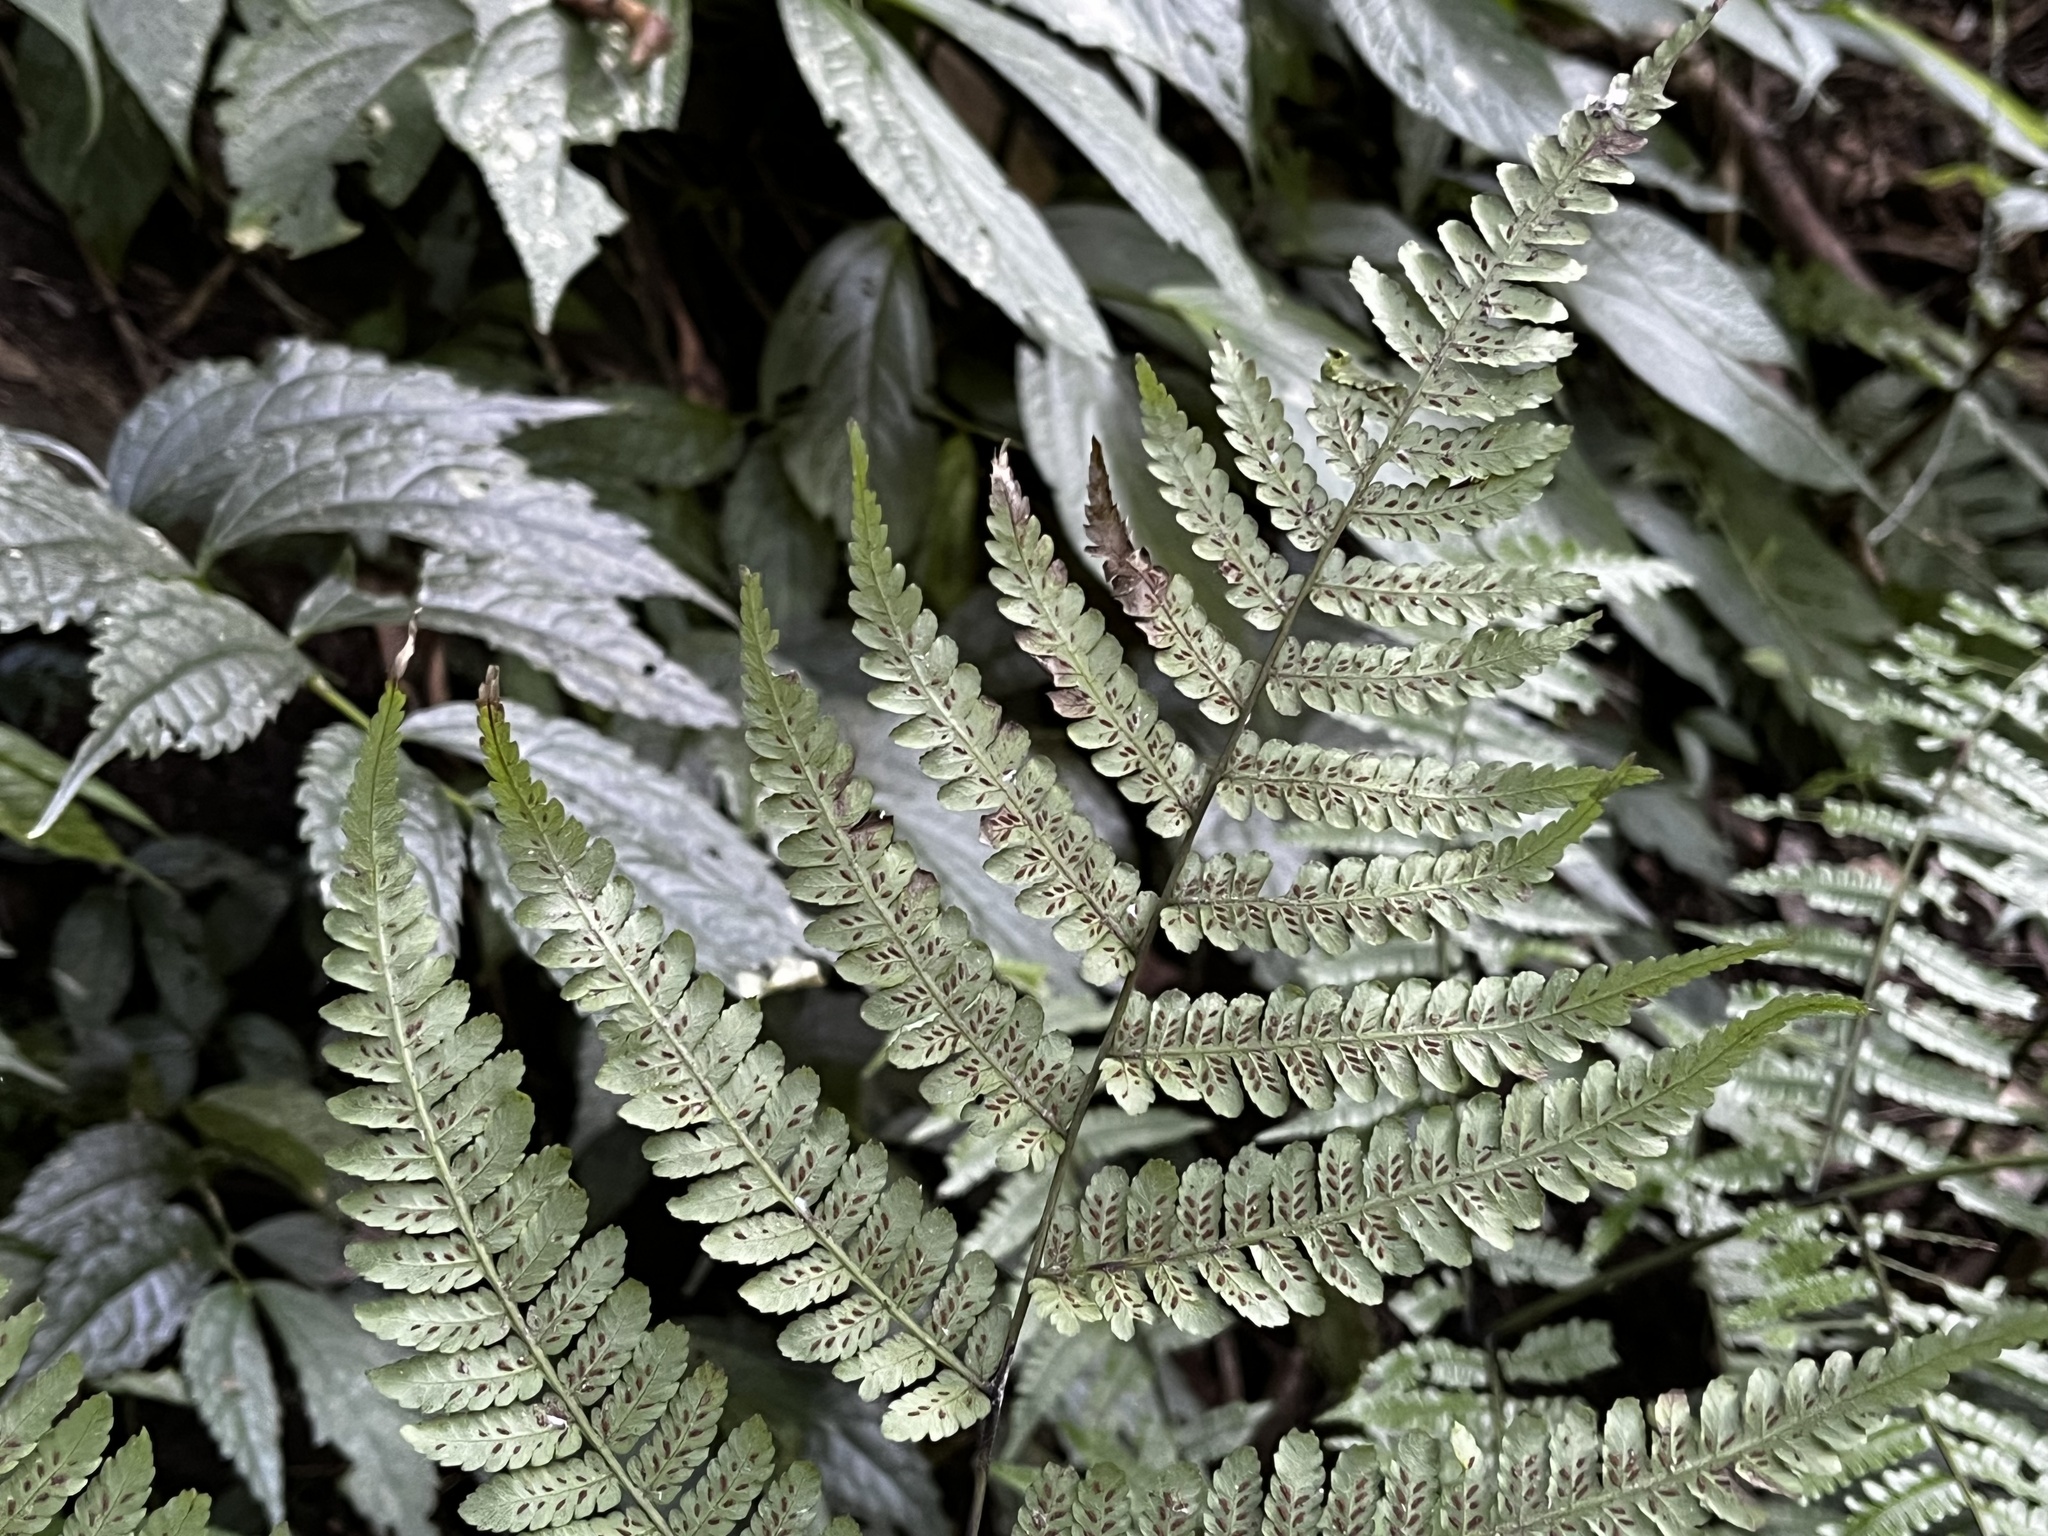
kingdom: Plantae
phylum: Tracheophyta
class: Polypodiopsida
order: Polypodiales
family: Athyriaceae
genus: Diplazium
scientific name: Diplazium laxifrons
